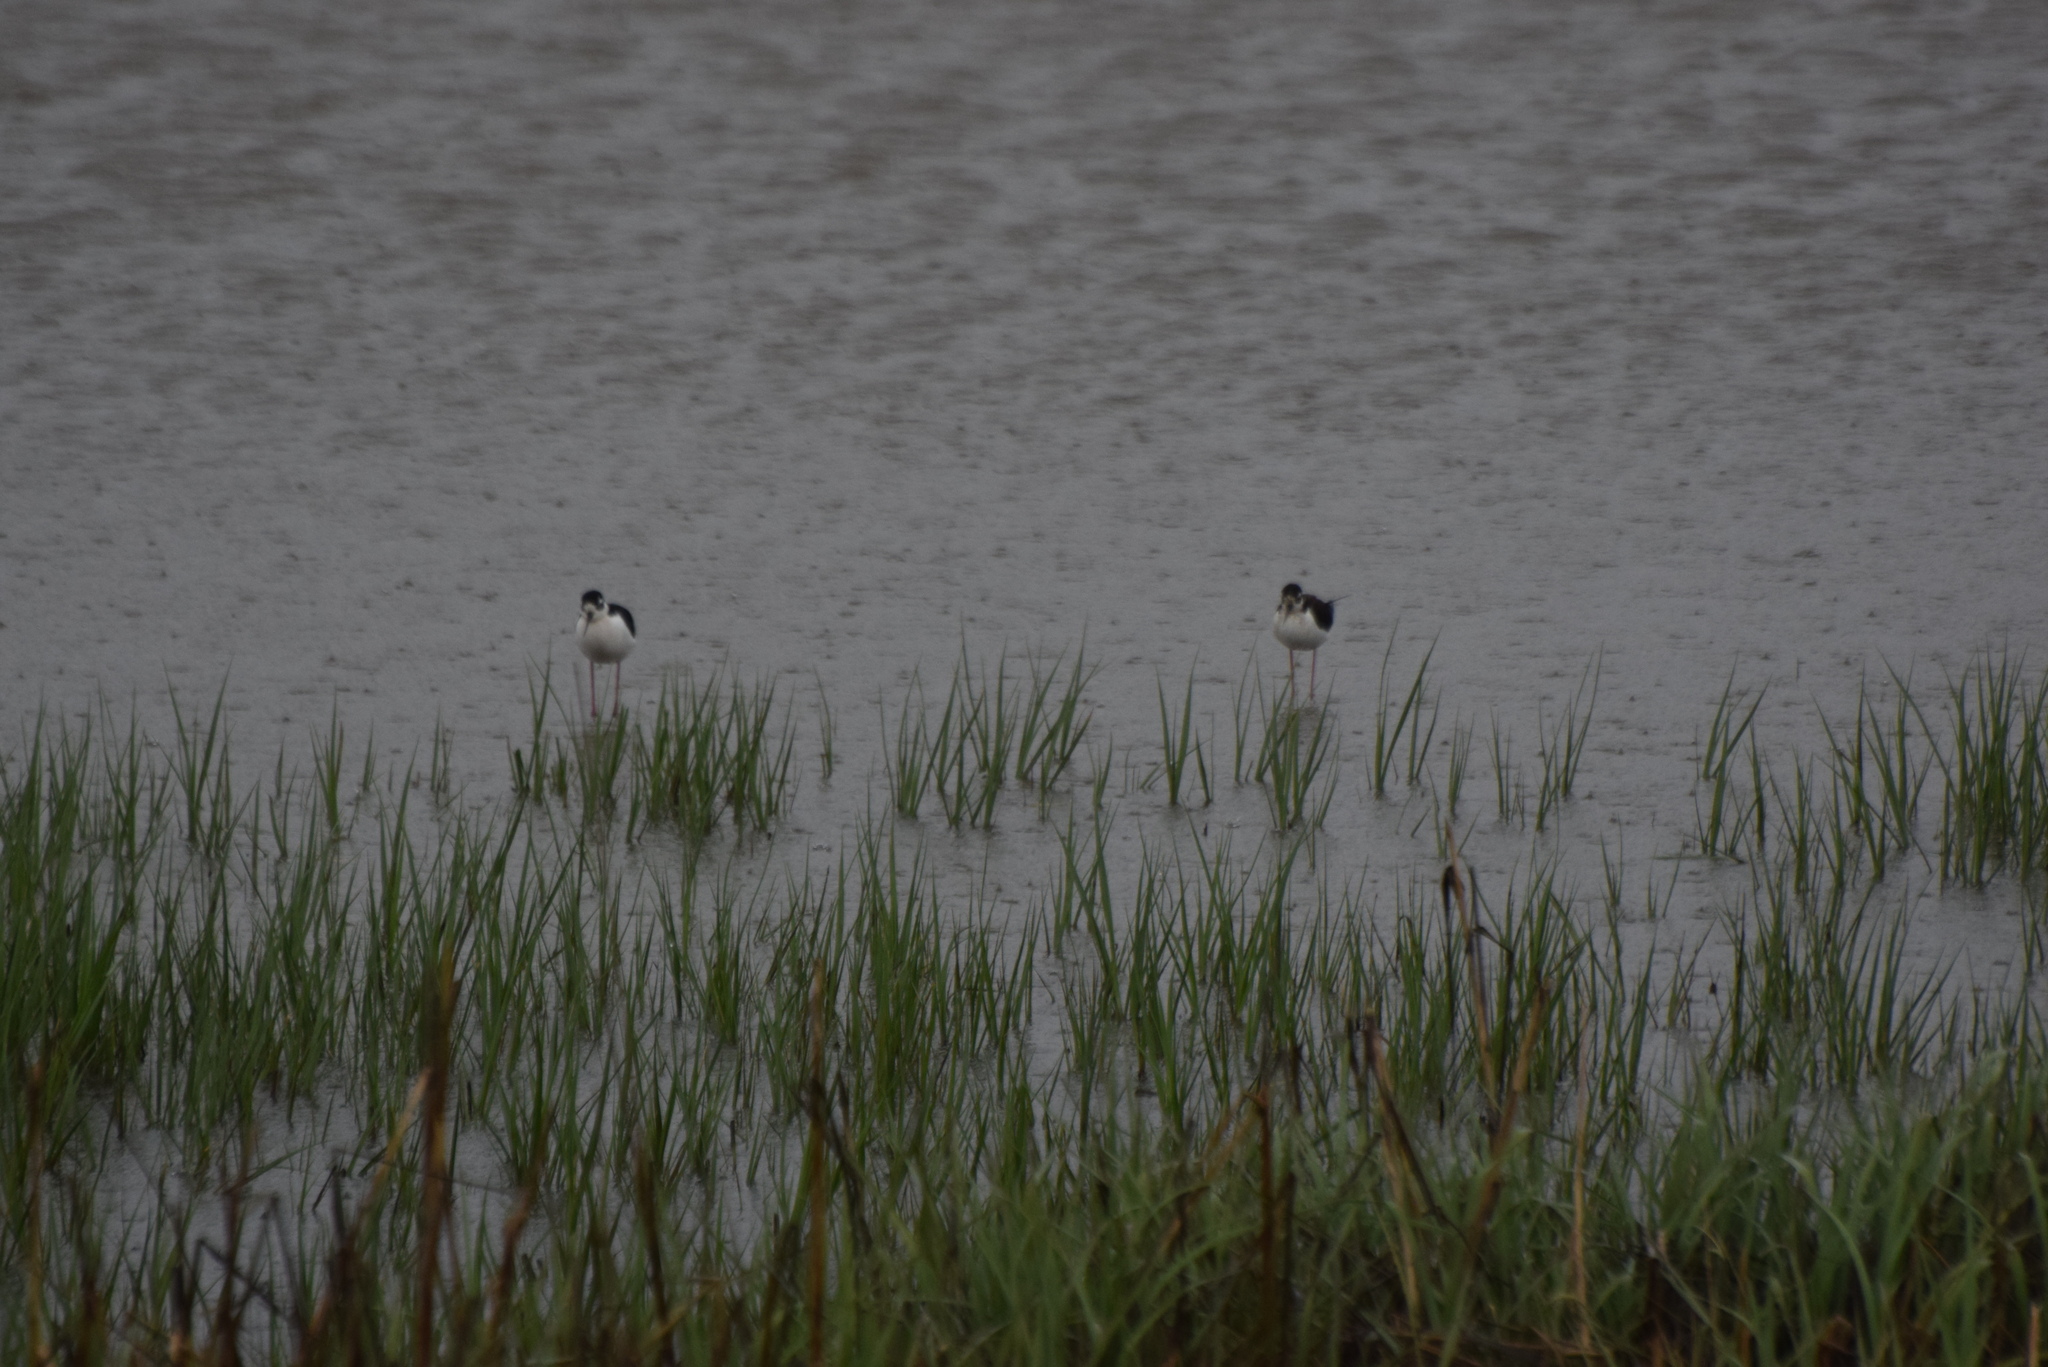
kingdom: Animalia
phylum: Chordata
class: Aves
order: Charadriiformes
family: Recurvirostridae
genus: Himantopus
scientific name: Himantopus mexicanus
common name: Black-necked stilt
